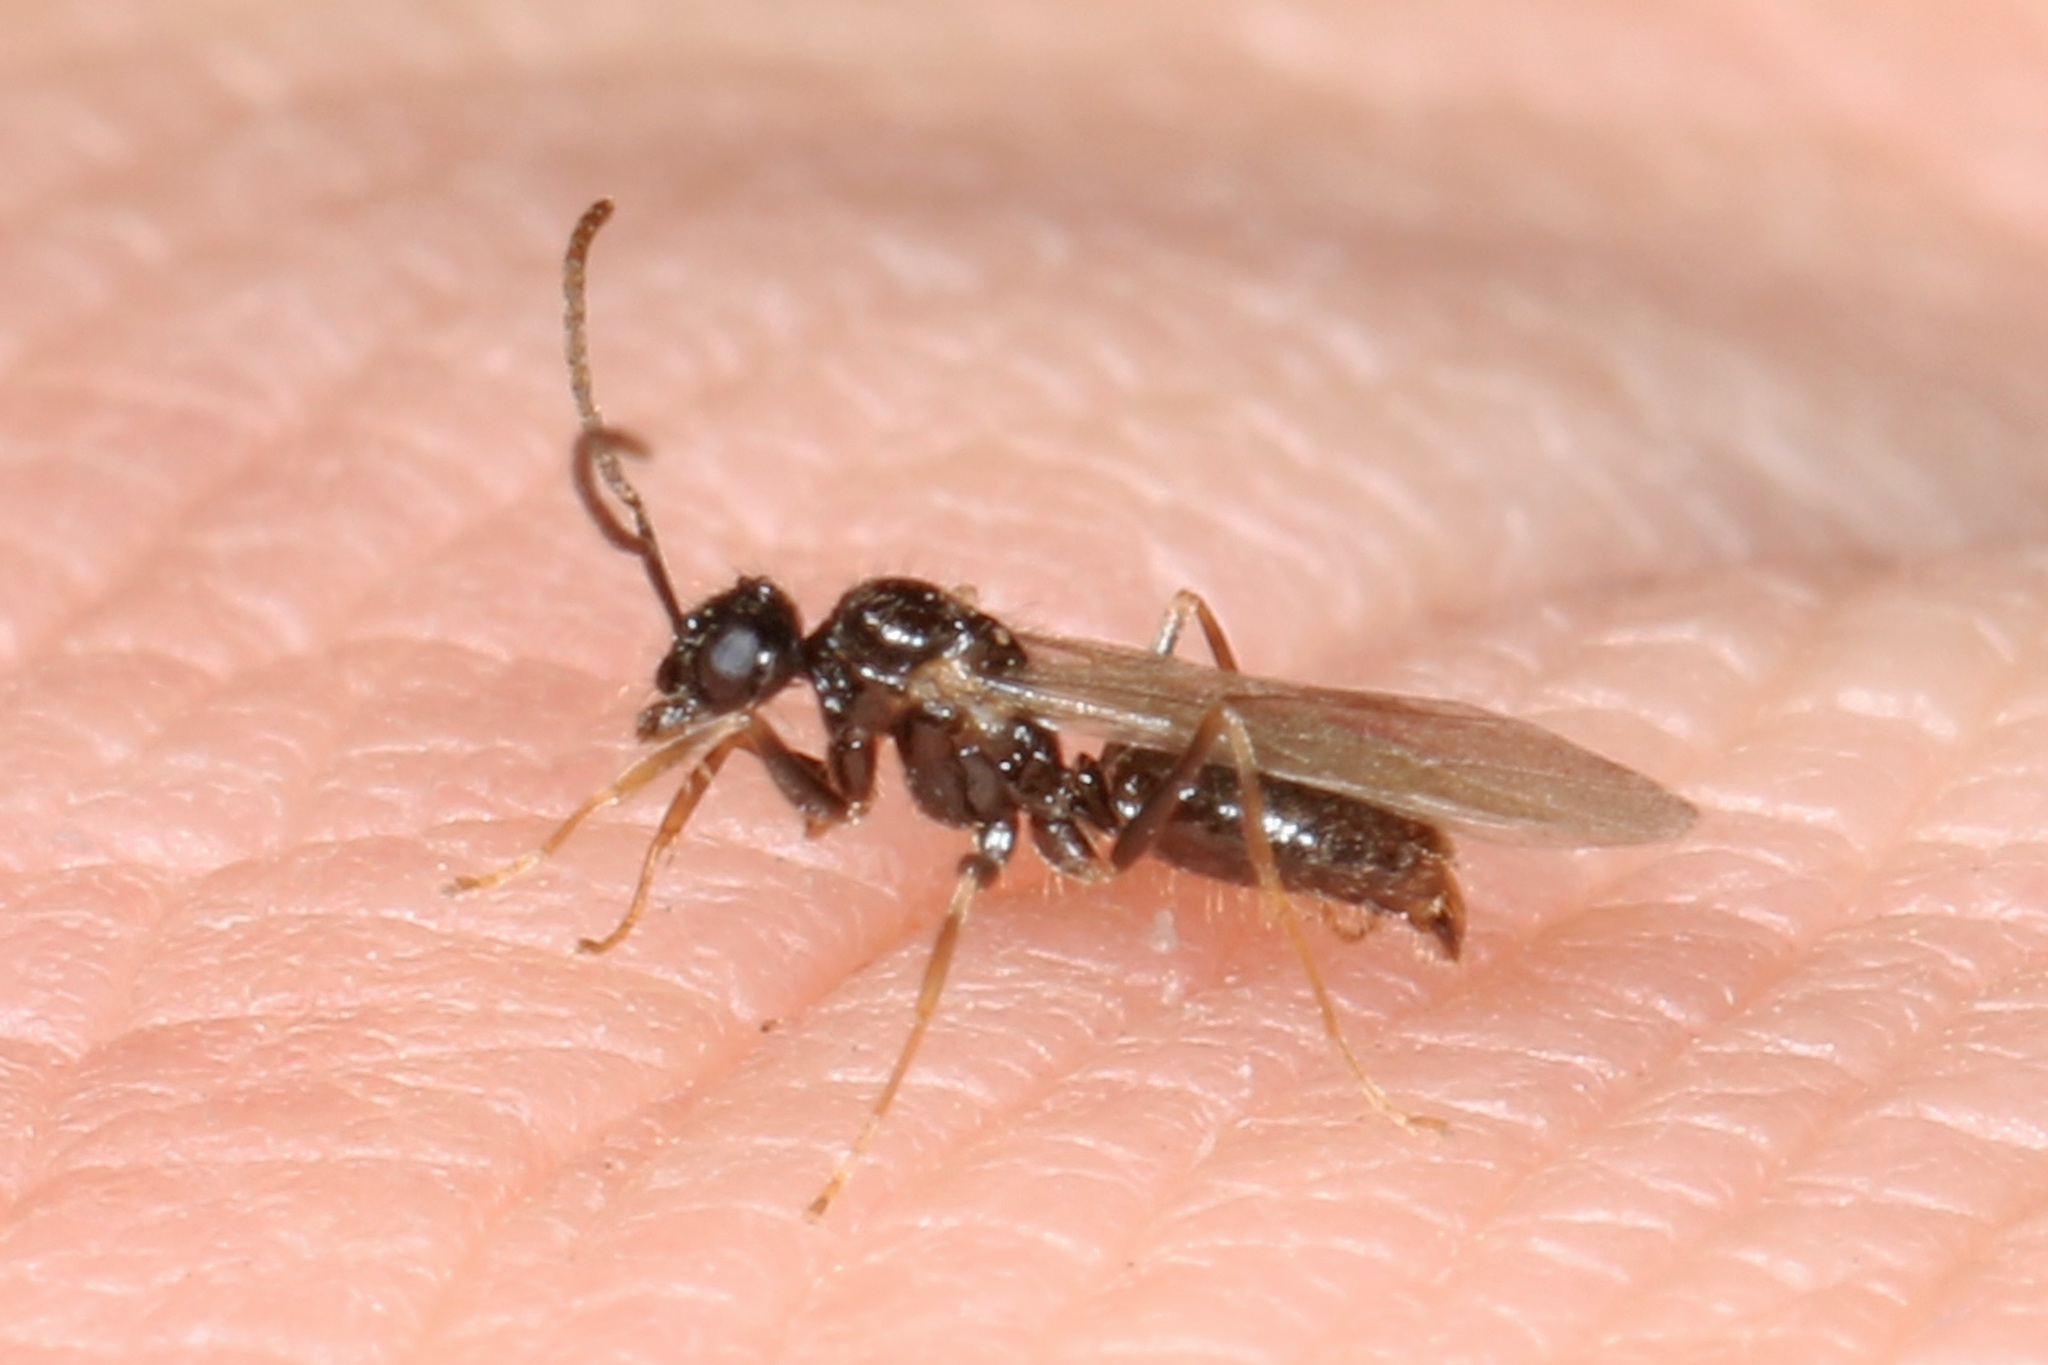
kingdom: Animalia
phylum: Arthropoda
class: Insecta
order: Hymenoptera
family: Formicidae
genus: Prenolepis
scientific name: Prenolepis imparis
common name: Small honey ant
